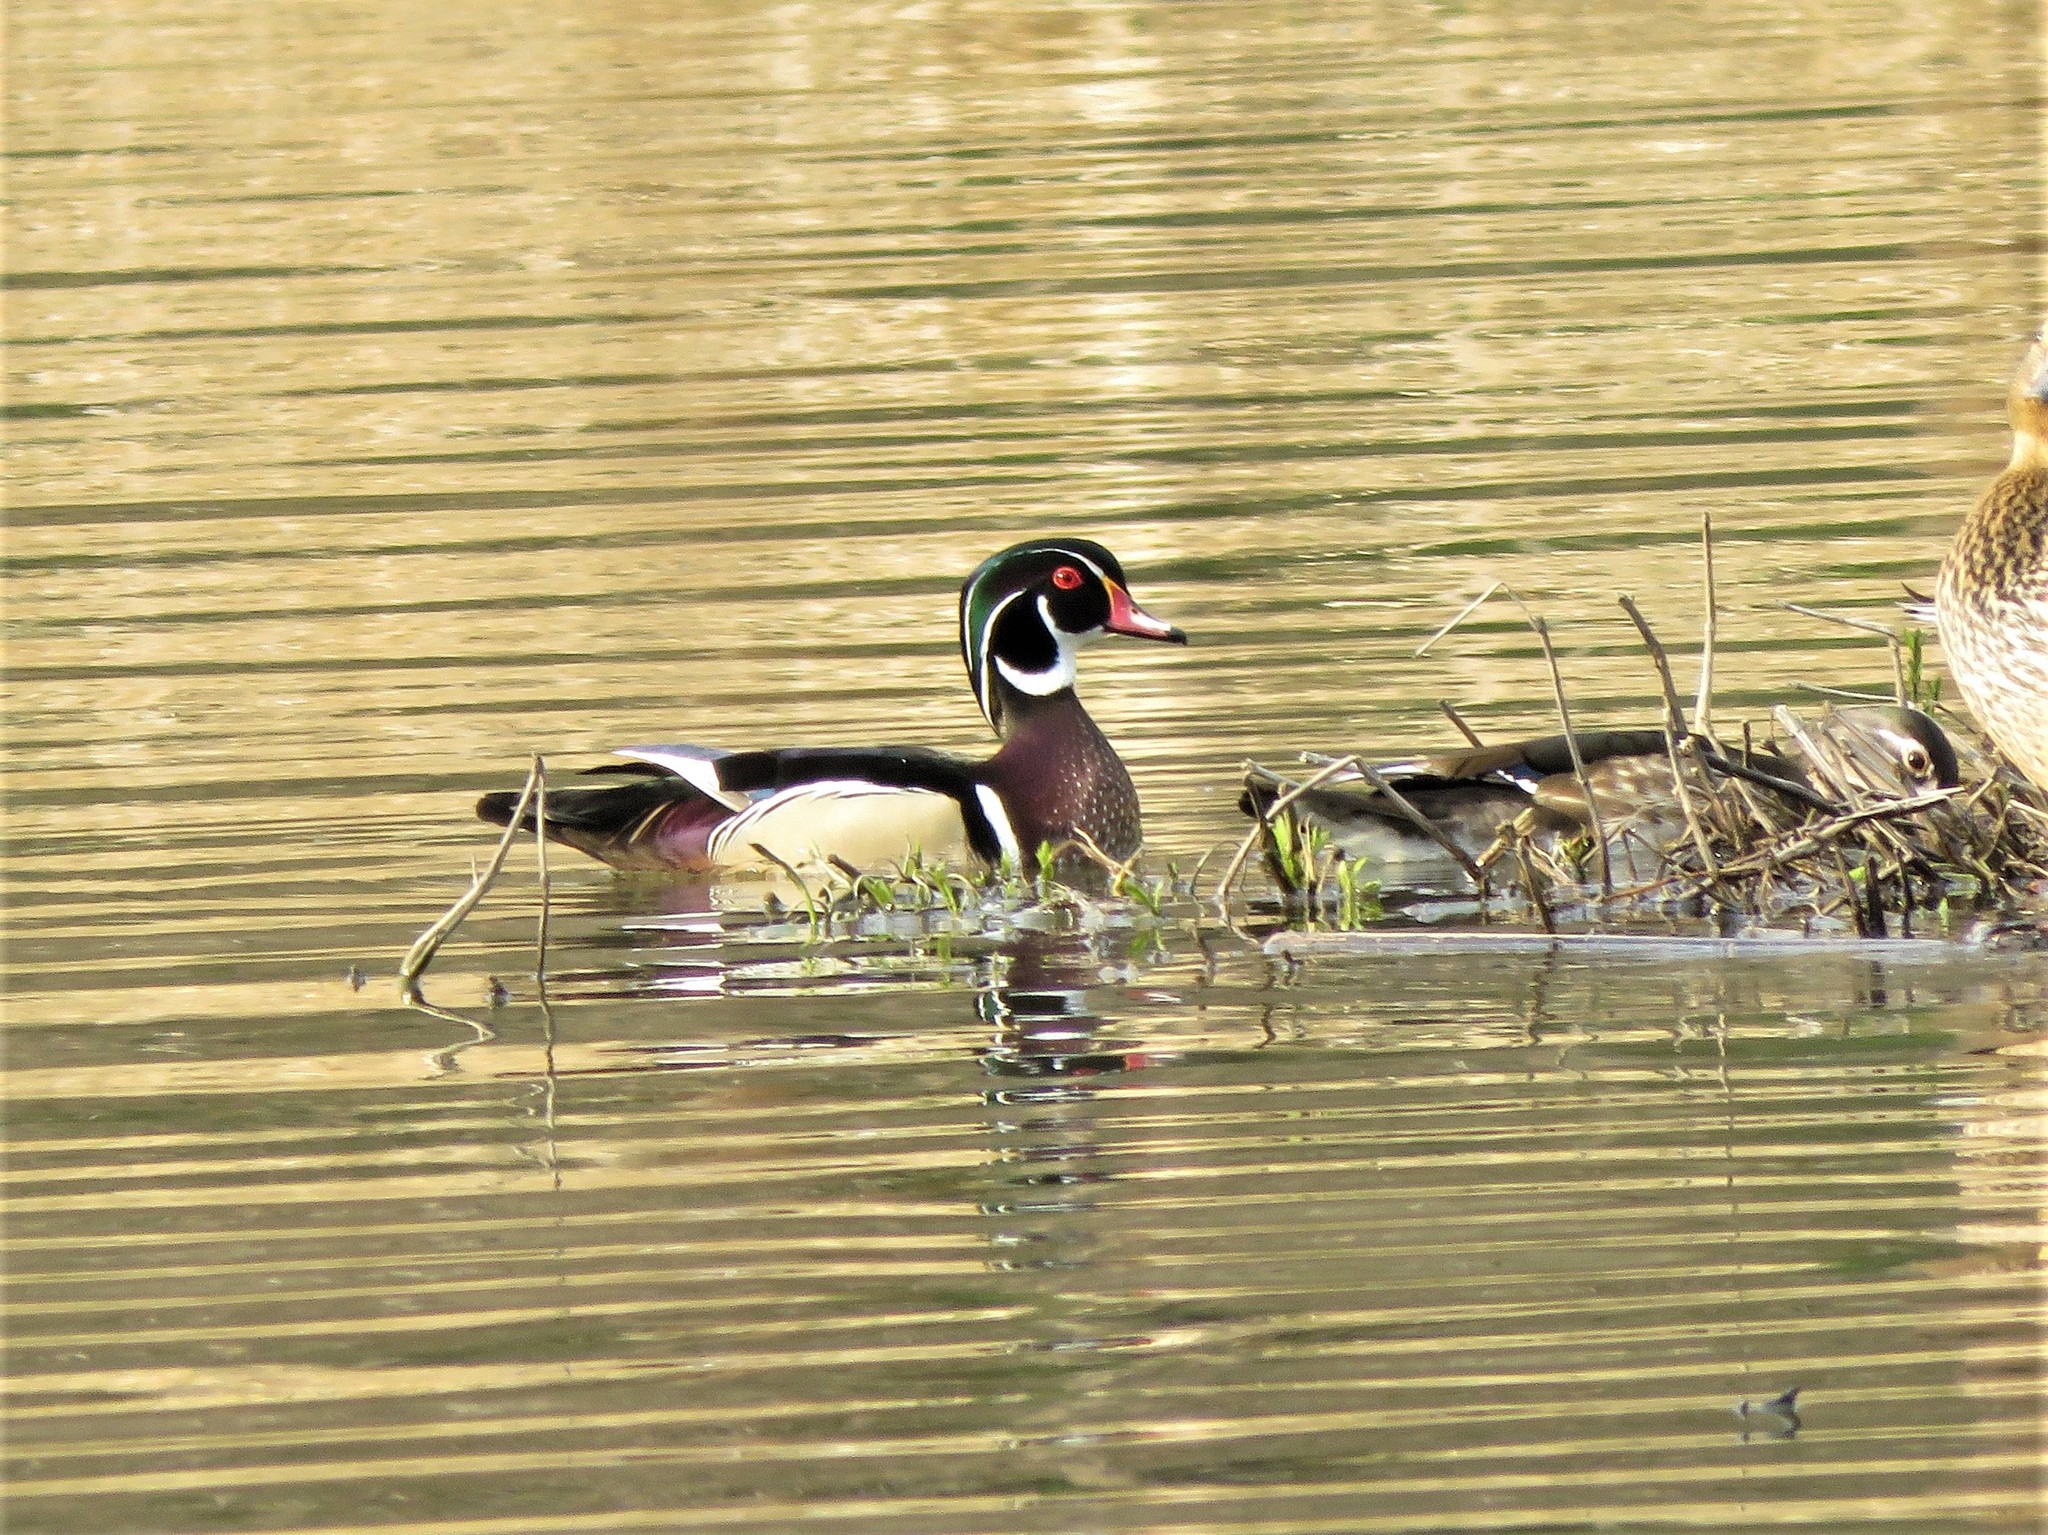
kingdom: Animalia
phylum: Chordata
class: Aves
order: Anseriformes
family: Anatidae
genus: Aix
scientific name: Aix sponsa
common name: Wood duck
